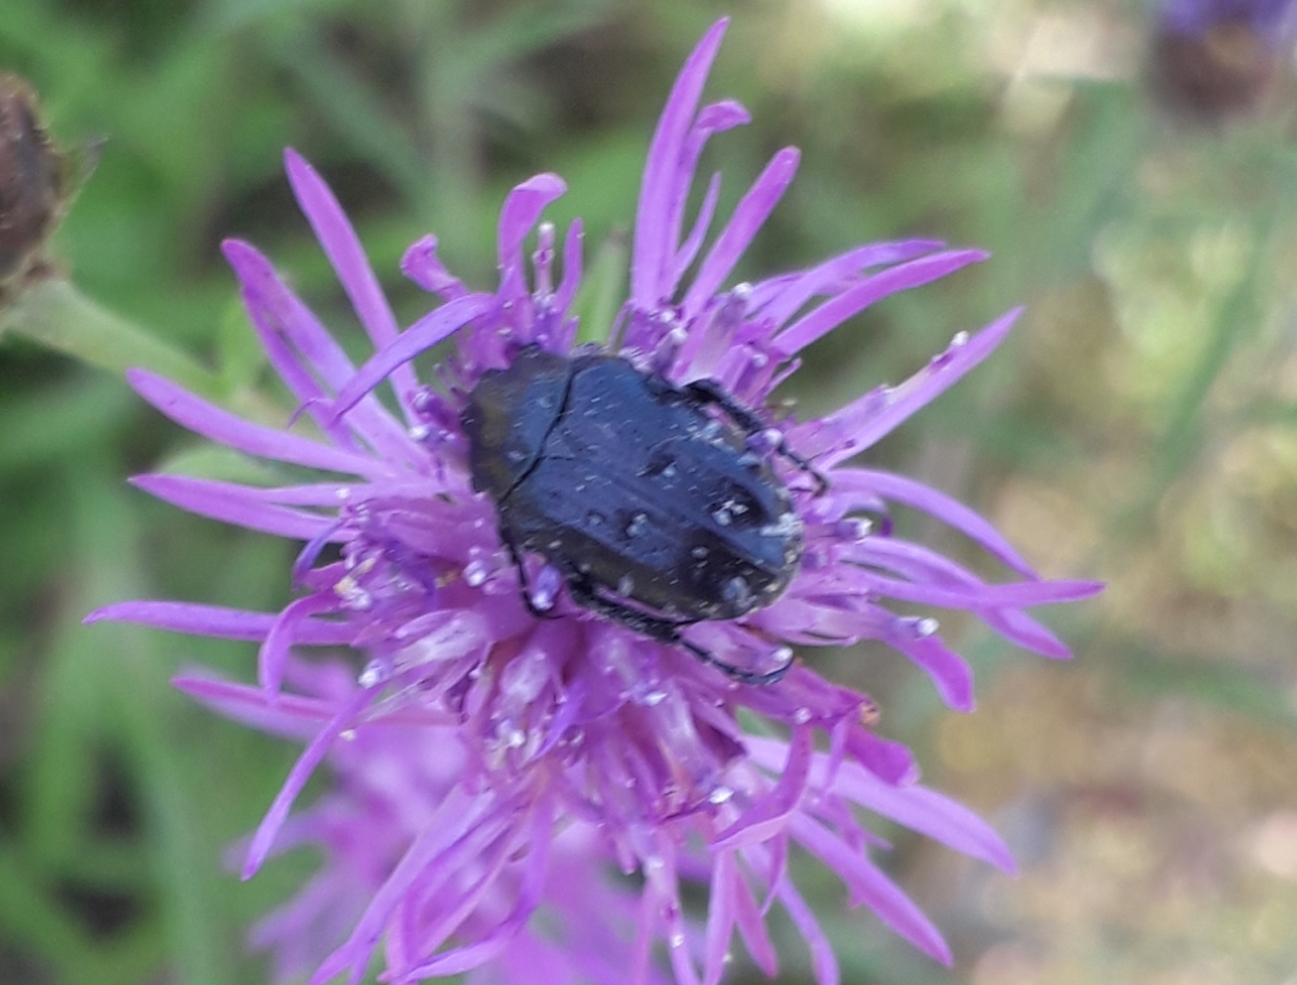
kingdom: Animalia
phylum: Arthropoda
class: Insecta
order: Coleoptera
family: Scarabaeidae
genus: Oxythyrea
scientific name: Oxythyrea funesta
